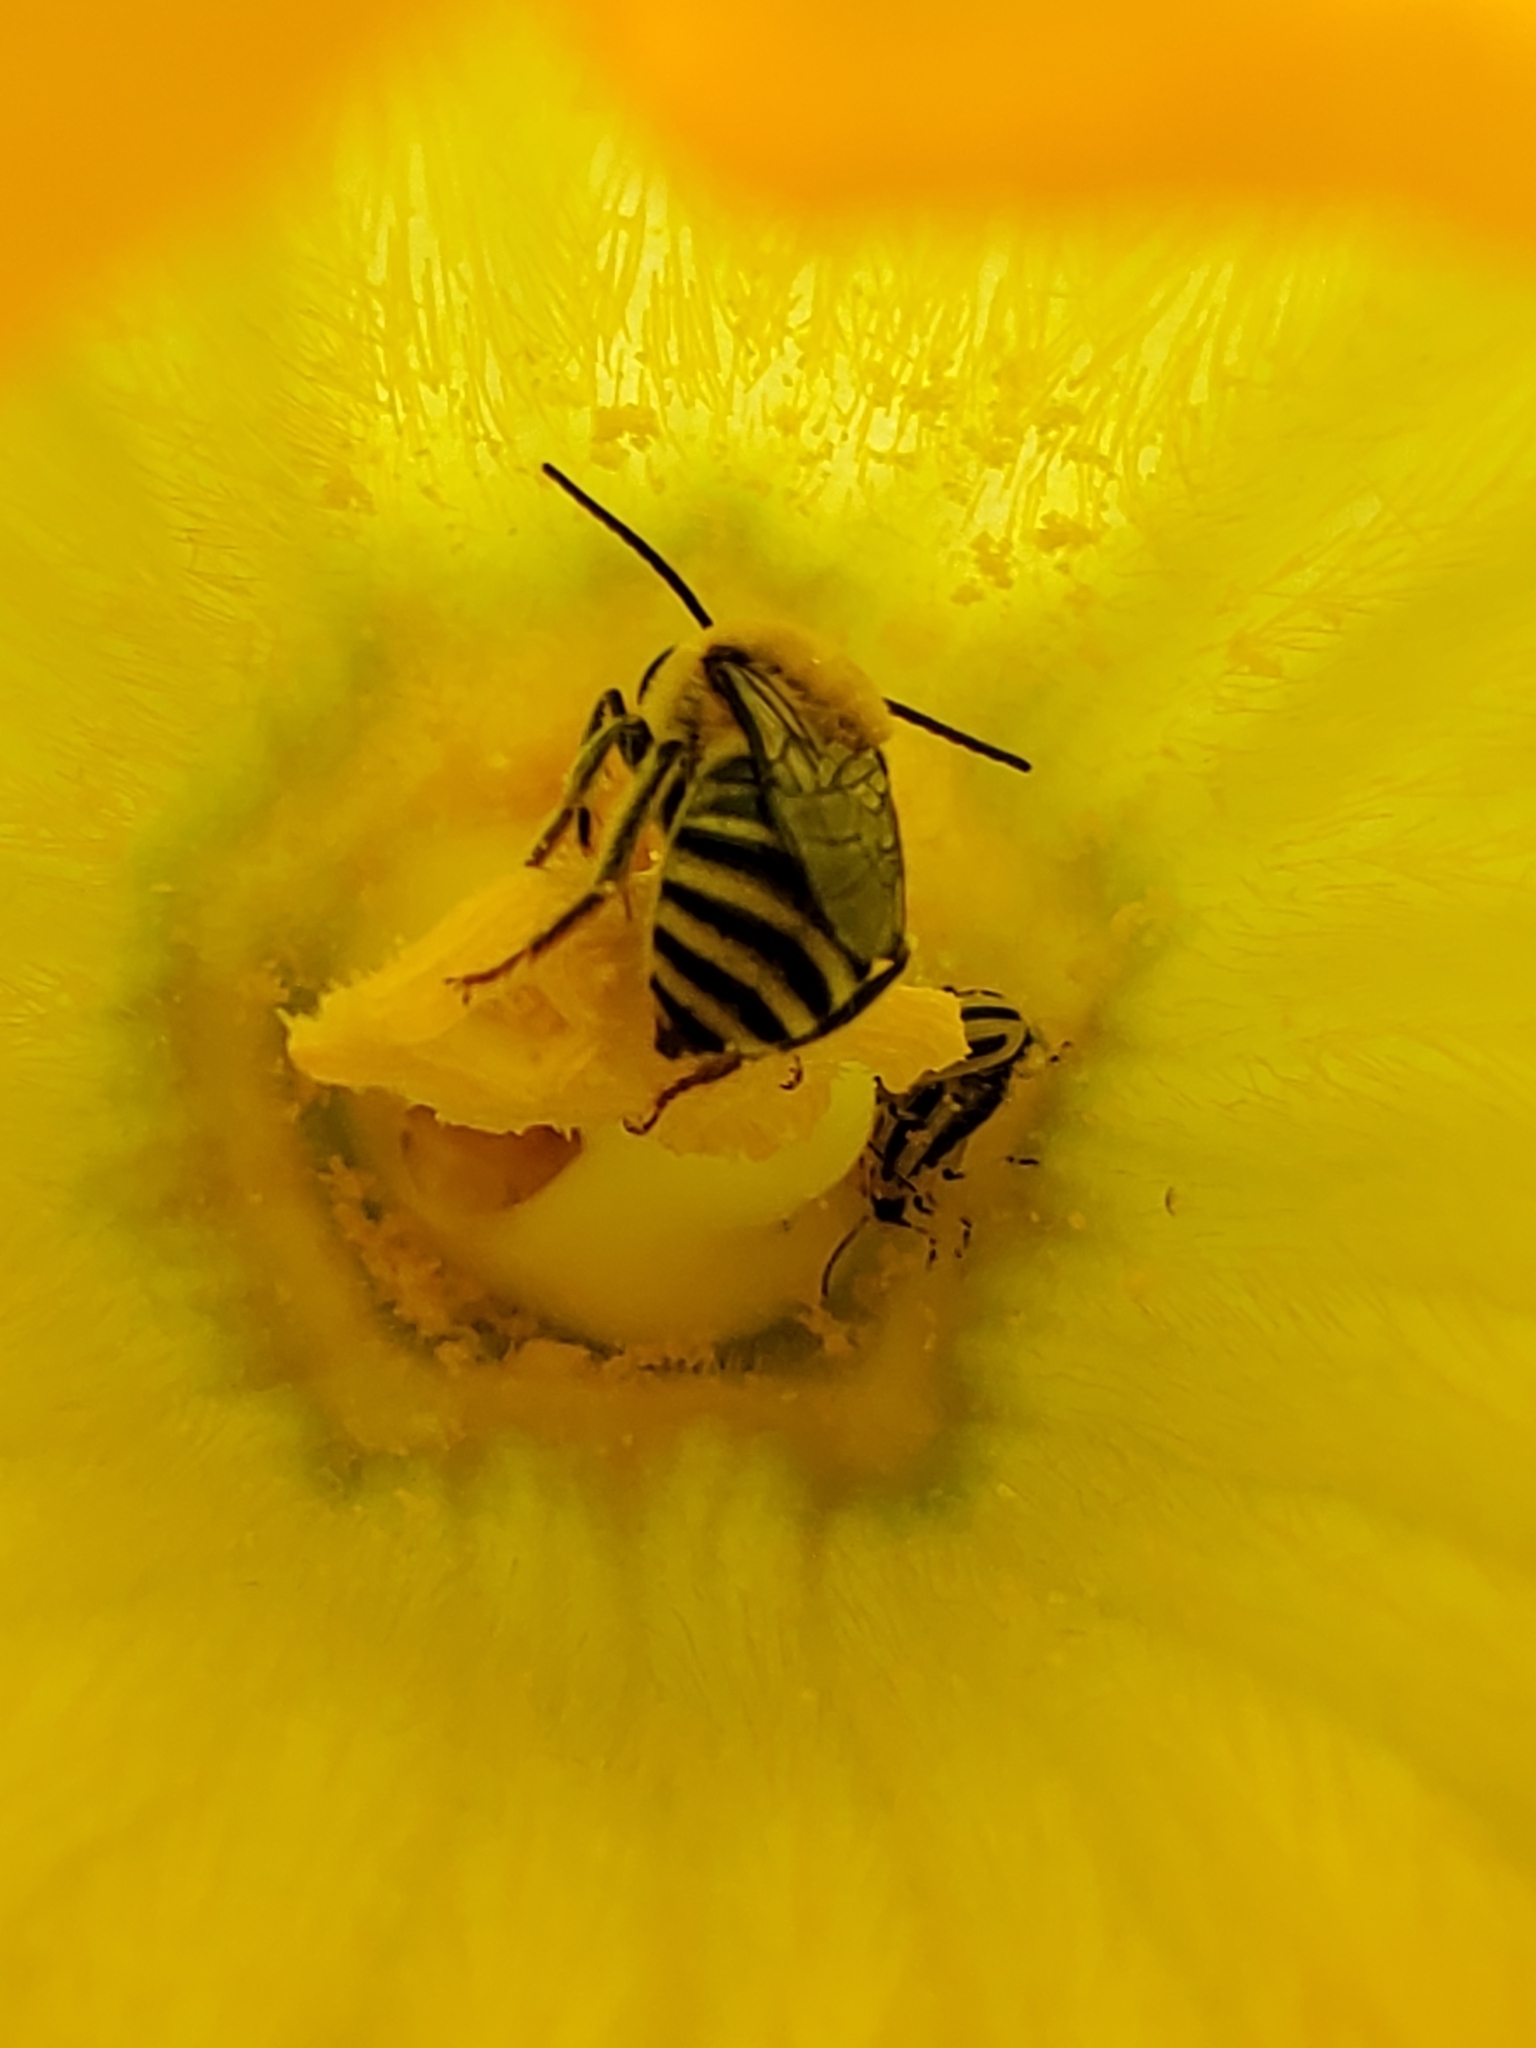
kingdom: Animalia
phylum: Arthropoda
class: Insecta
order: Hymenoptera
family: Apidae
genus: Peponapis
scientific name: Peponapis pruinosa
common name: Pruinose squash bee
